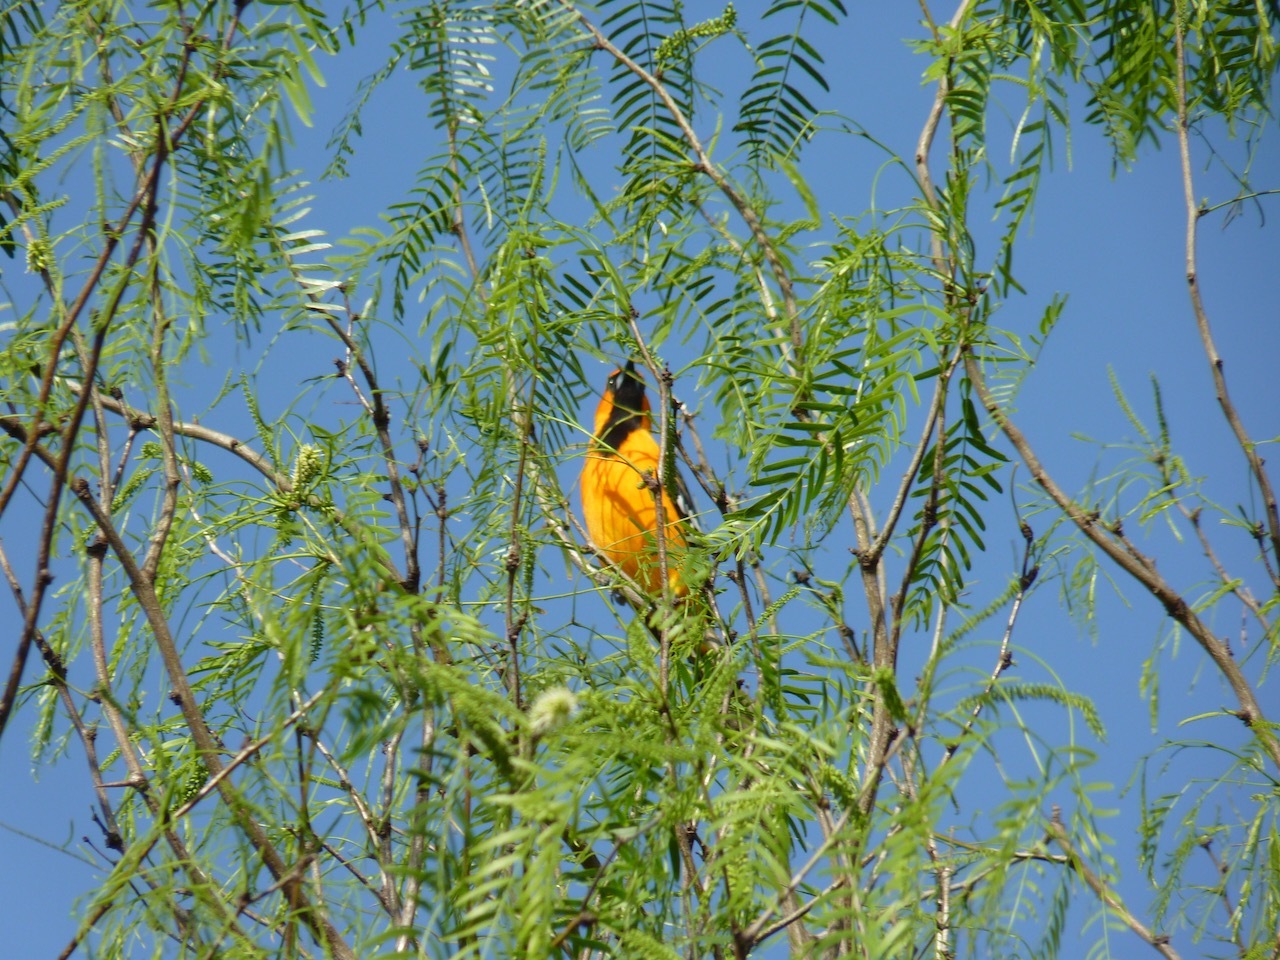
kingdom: Animalia
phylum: Chordata
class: Aves
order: Passeriformes
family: Icteridae
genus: Icterus
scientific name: Icterus cucullatus
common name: Hooded oriole
